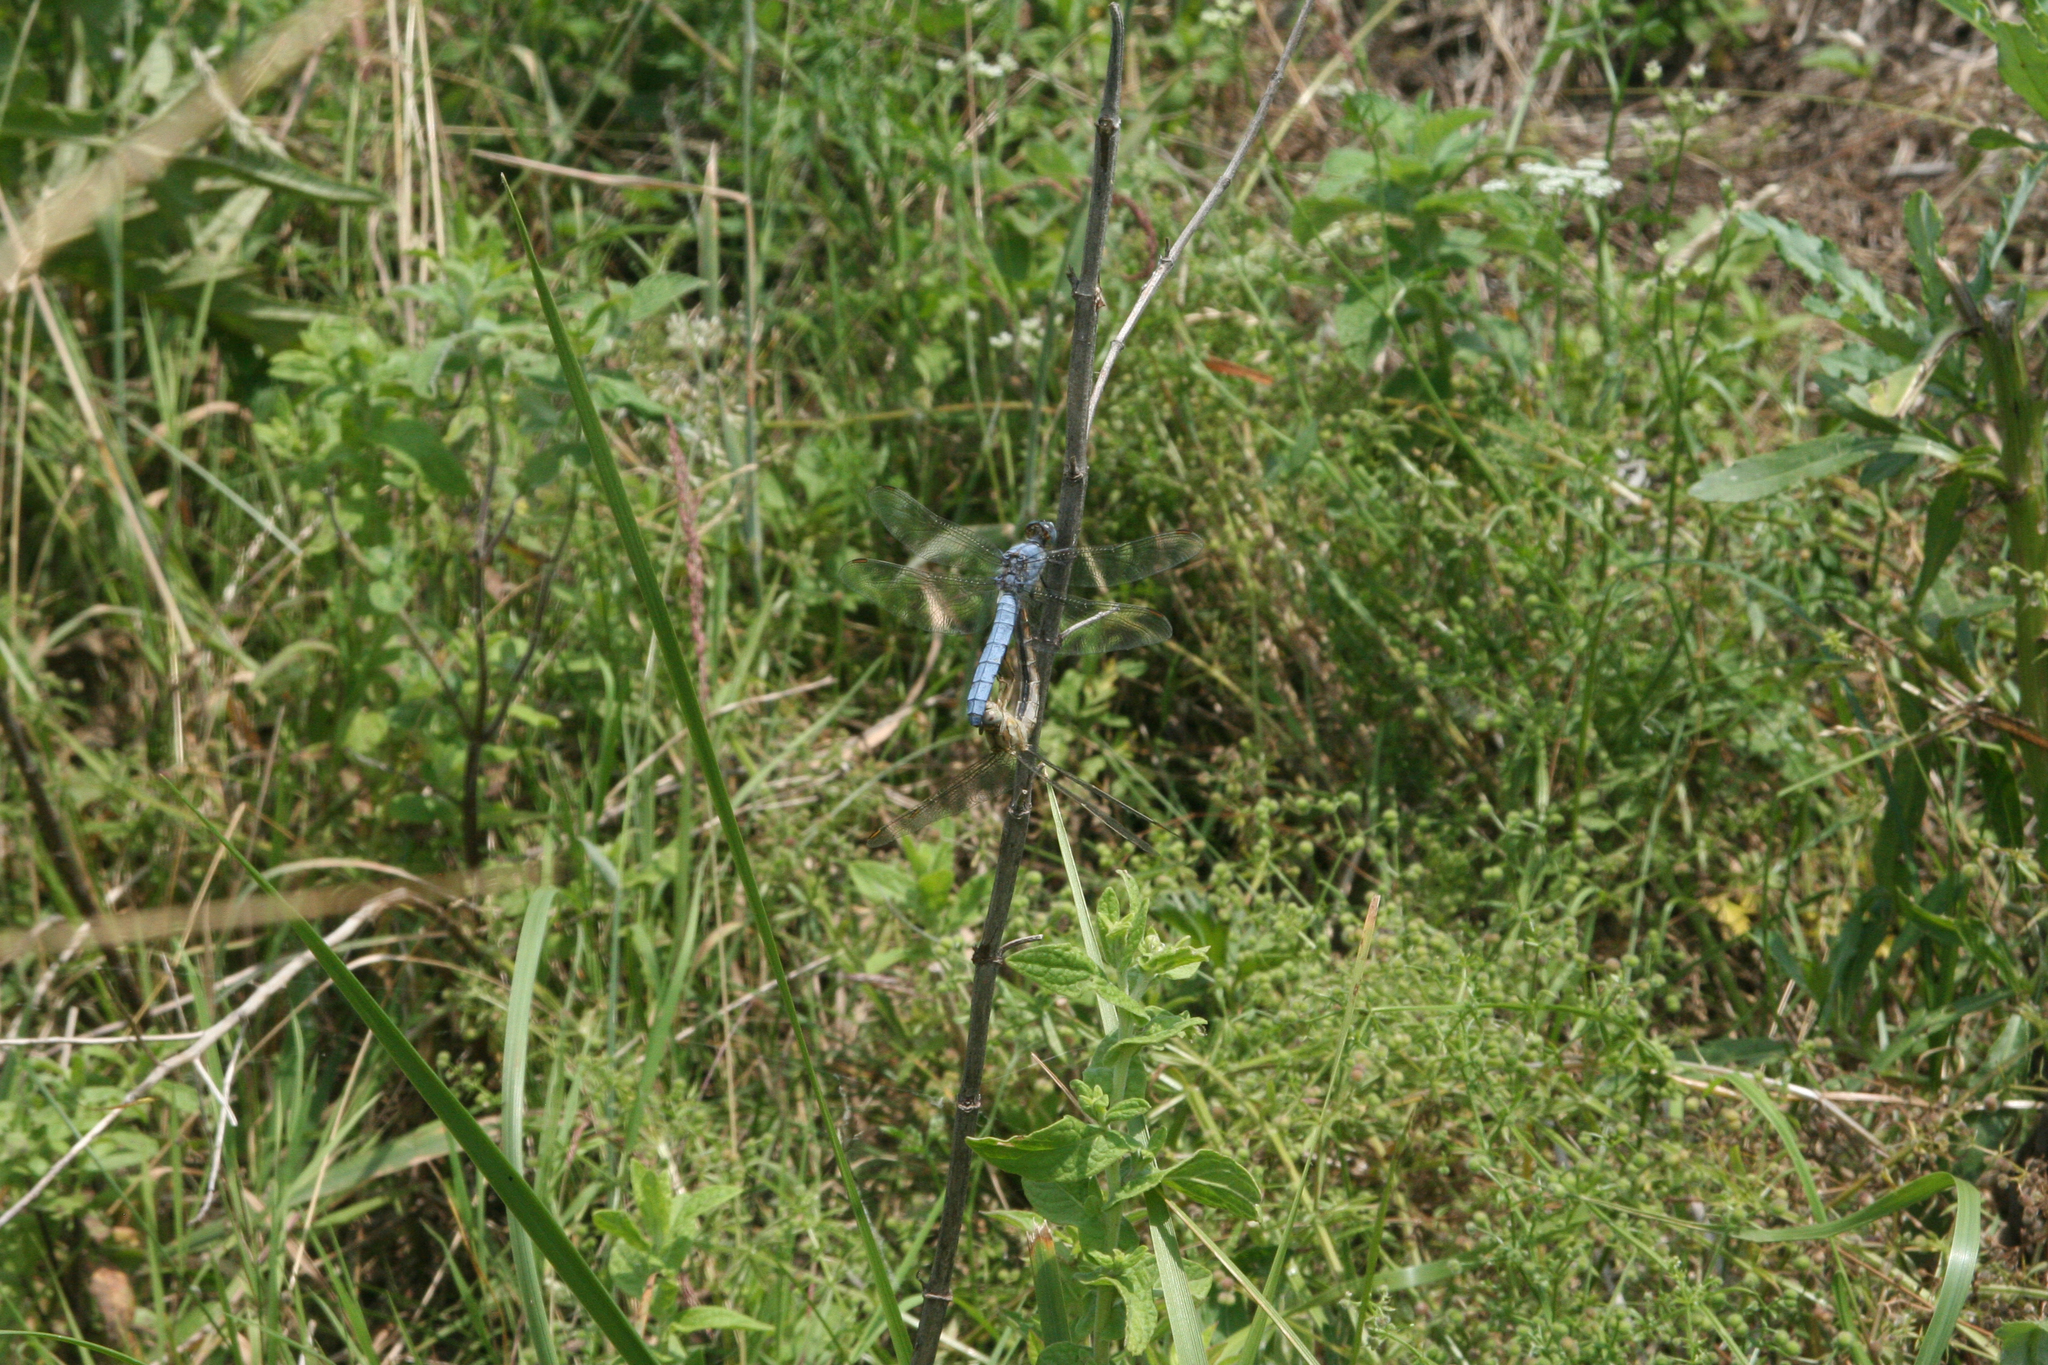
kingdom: Animalia
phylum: Arthropoda
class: Insecta
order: Odonata
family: Libellulidae
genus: Orthetrum
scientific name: Orthetrum brunneum
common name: Southern skimmer
